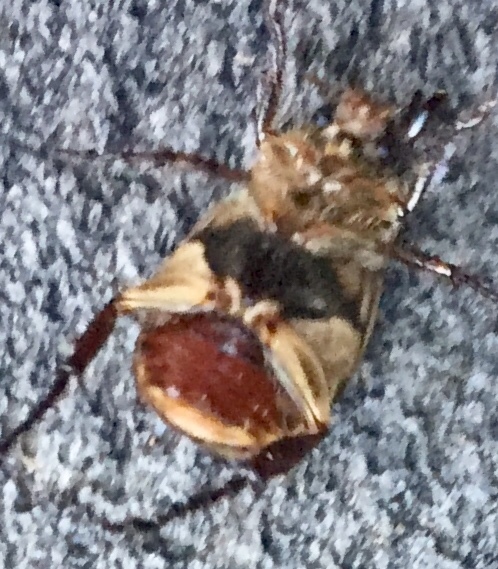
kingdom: Animalia
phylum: Arthropoda
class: Insecta
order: Coleoptera
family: Scarabaeidae
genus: Exomala
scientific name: Exomala orientalis
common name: Oriental beetle
